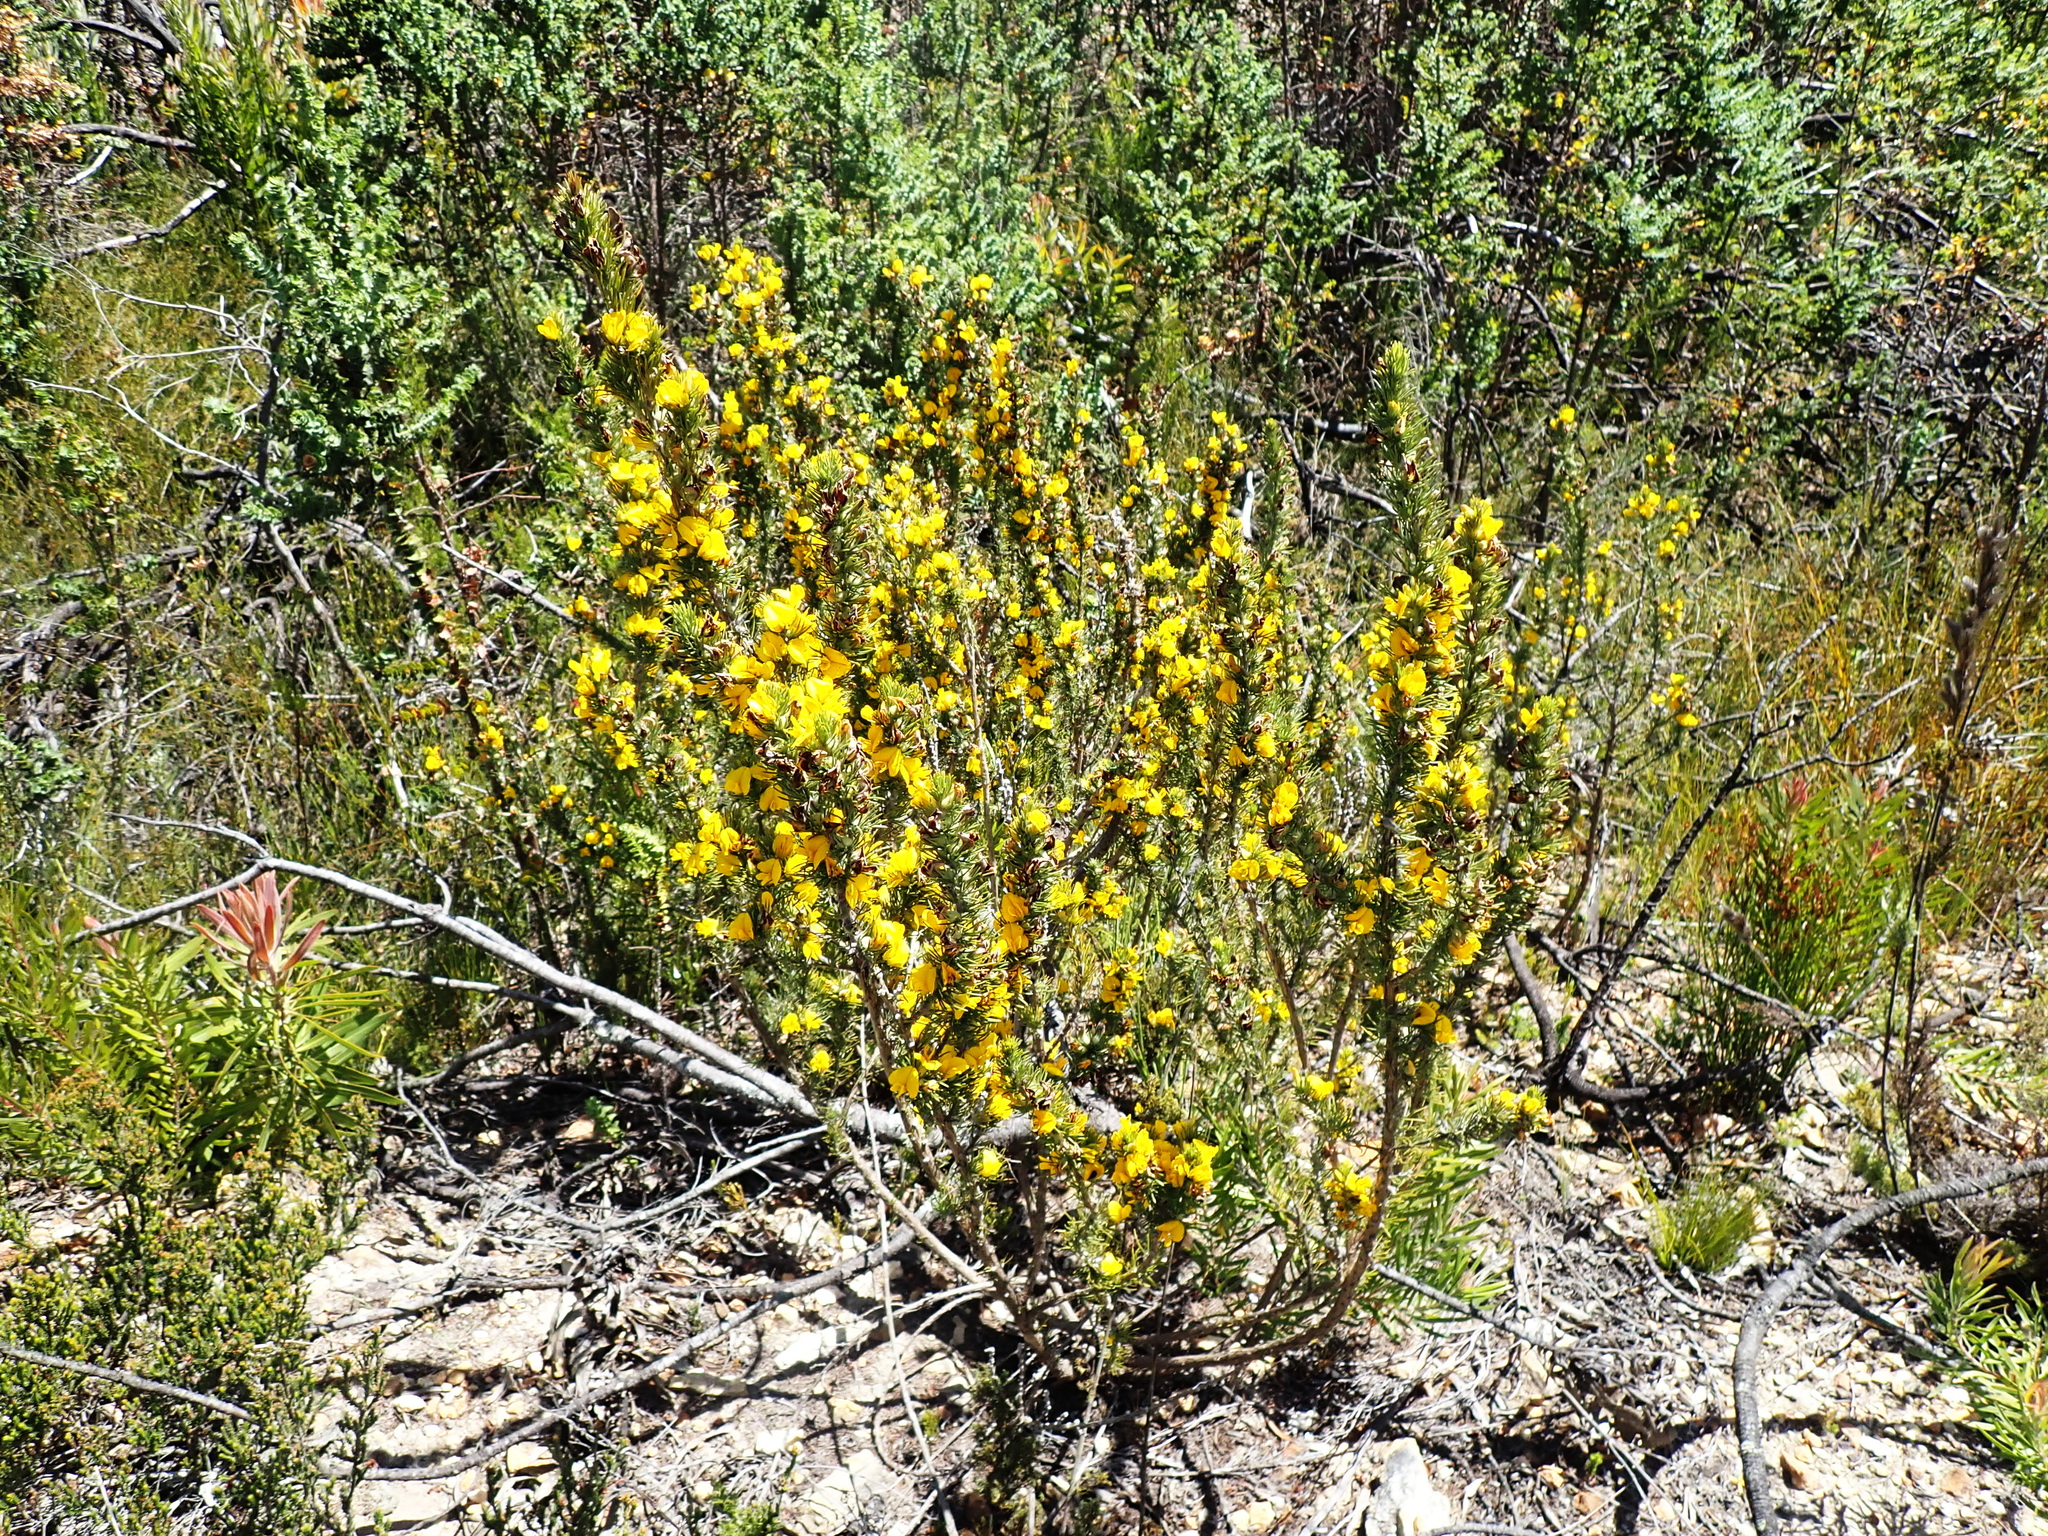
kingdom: Plantae
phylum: Tracheophyta
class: Magnoliopsida
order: Fabales
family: Fabaceae
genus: Aspalathus
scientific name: Aspalathus laricifolia
